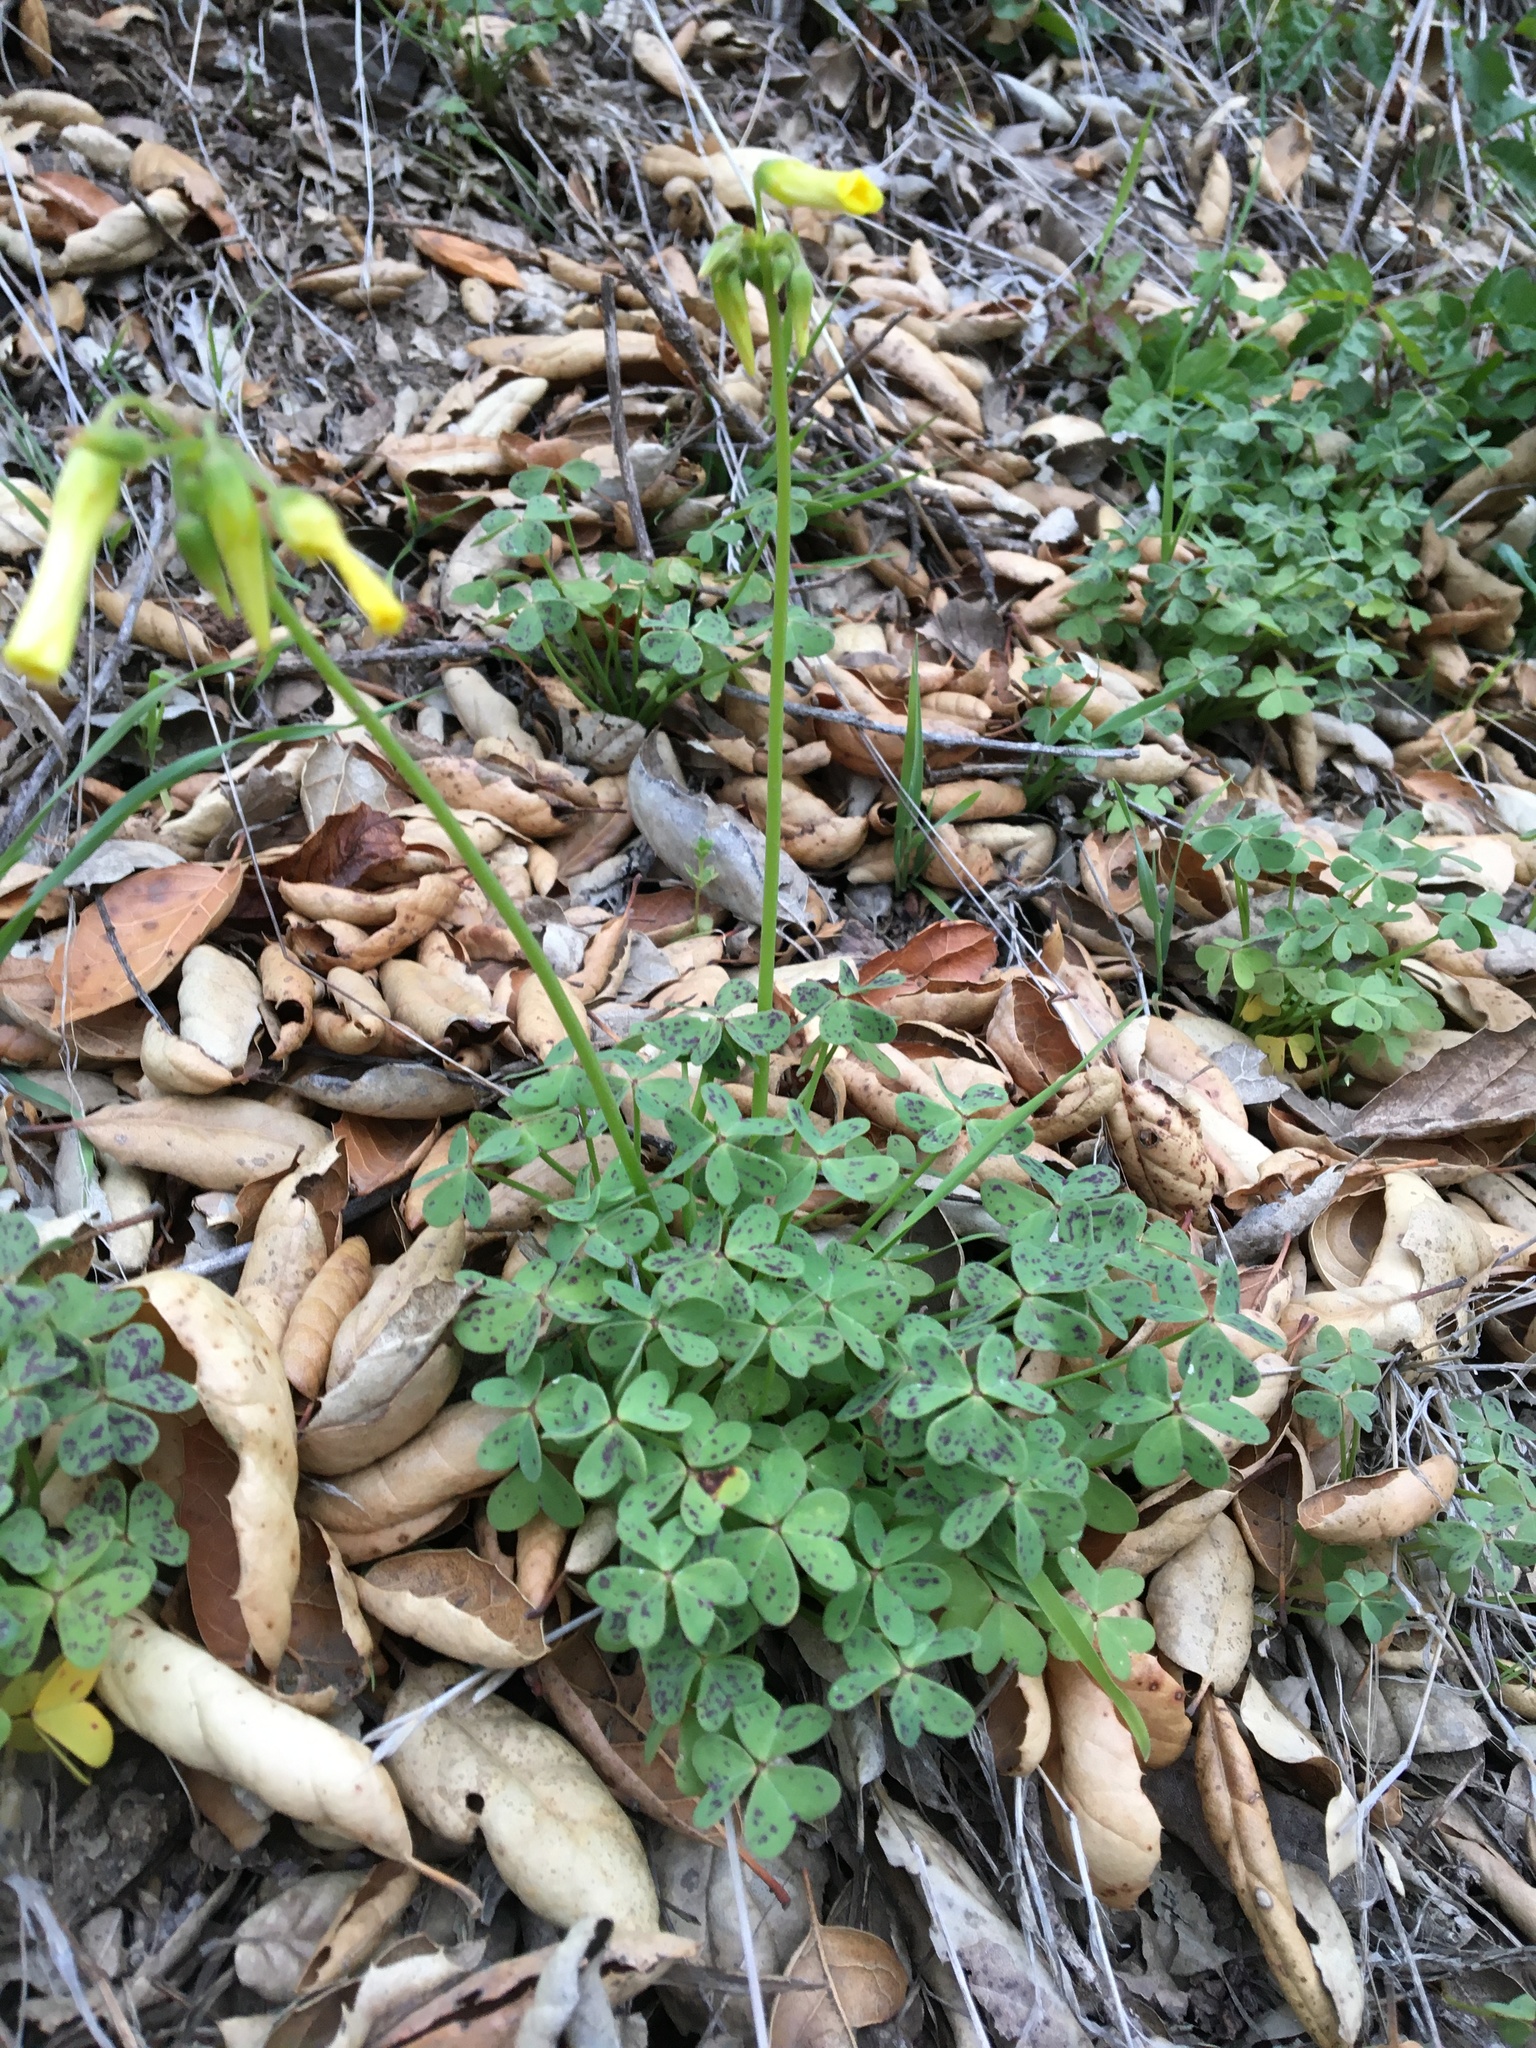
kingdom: Plantae
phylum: Tracheophyta
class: Magnoliopsida
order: Oxalidales
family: Oxalidaceae
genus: Oxalis
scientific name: Oxalis pes-caprae
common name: Bermuda-buttercup
